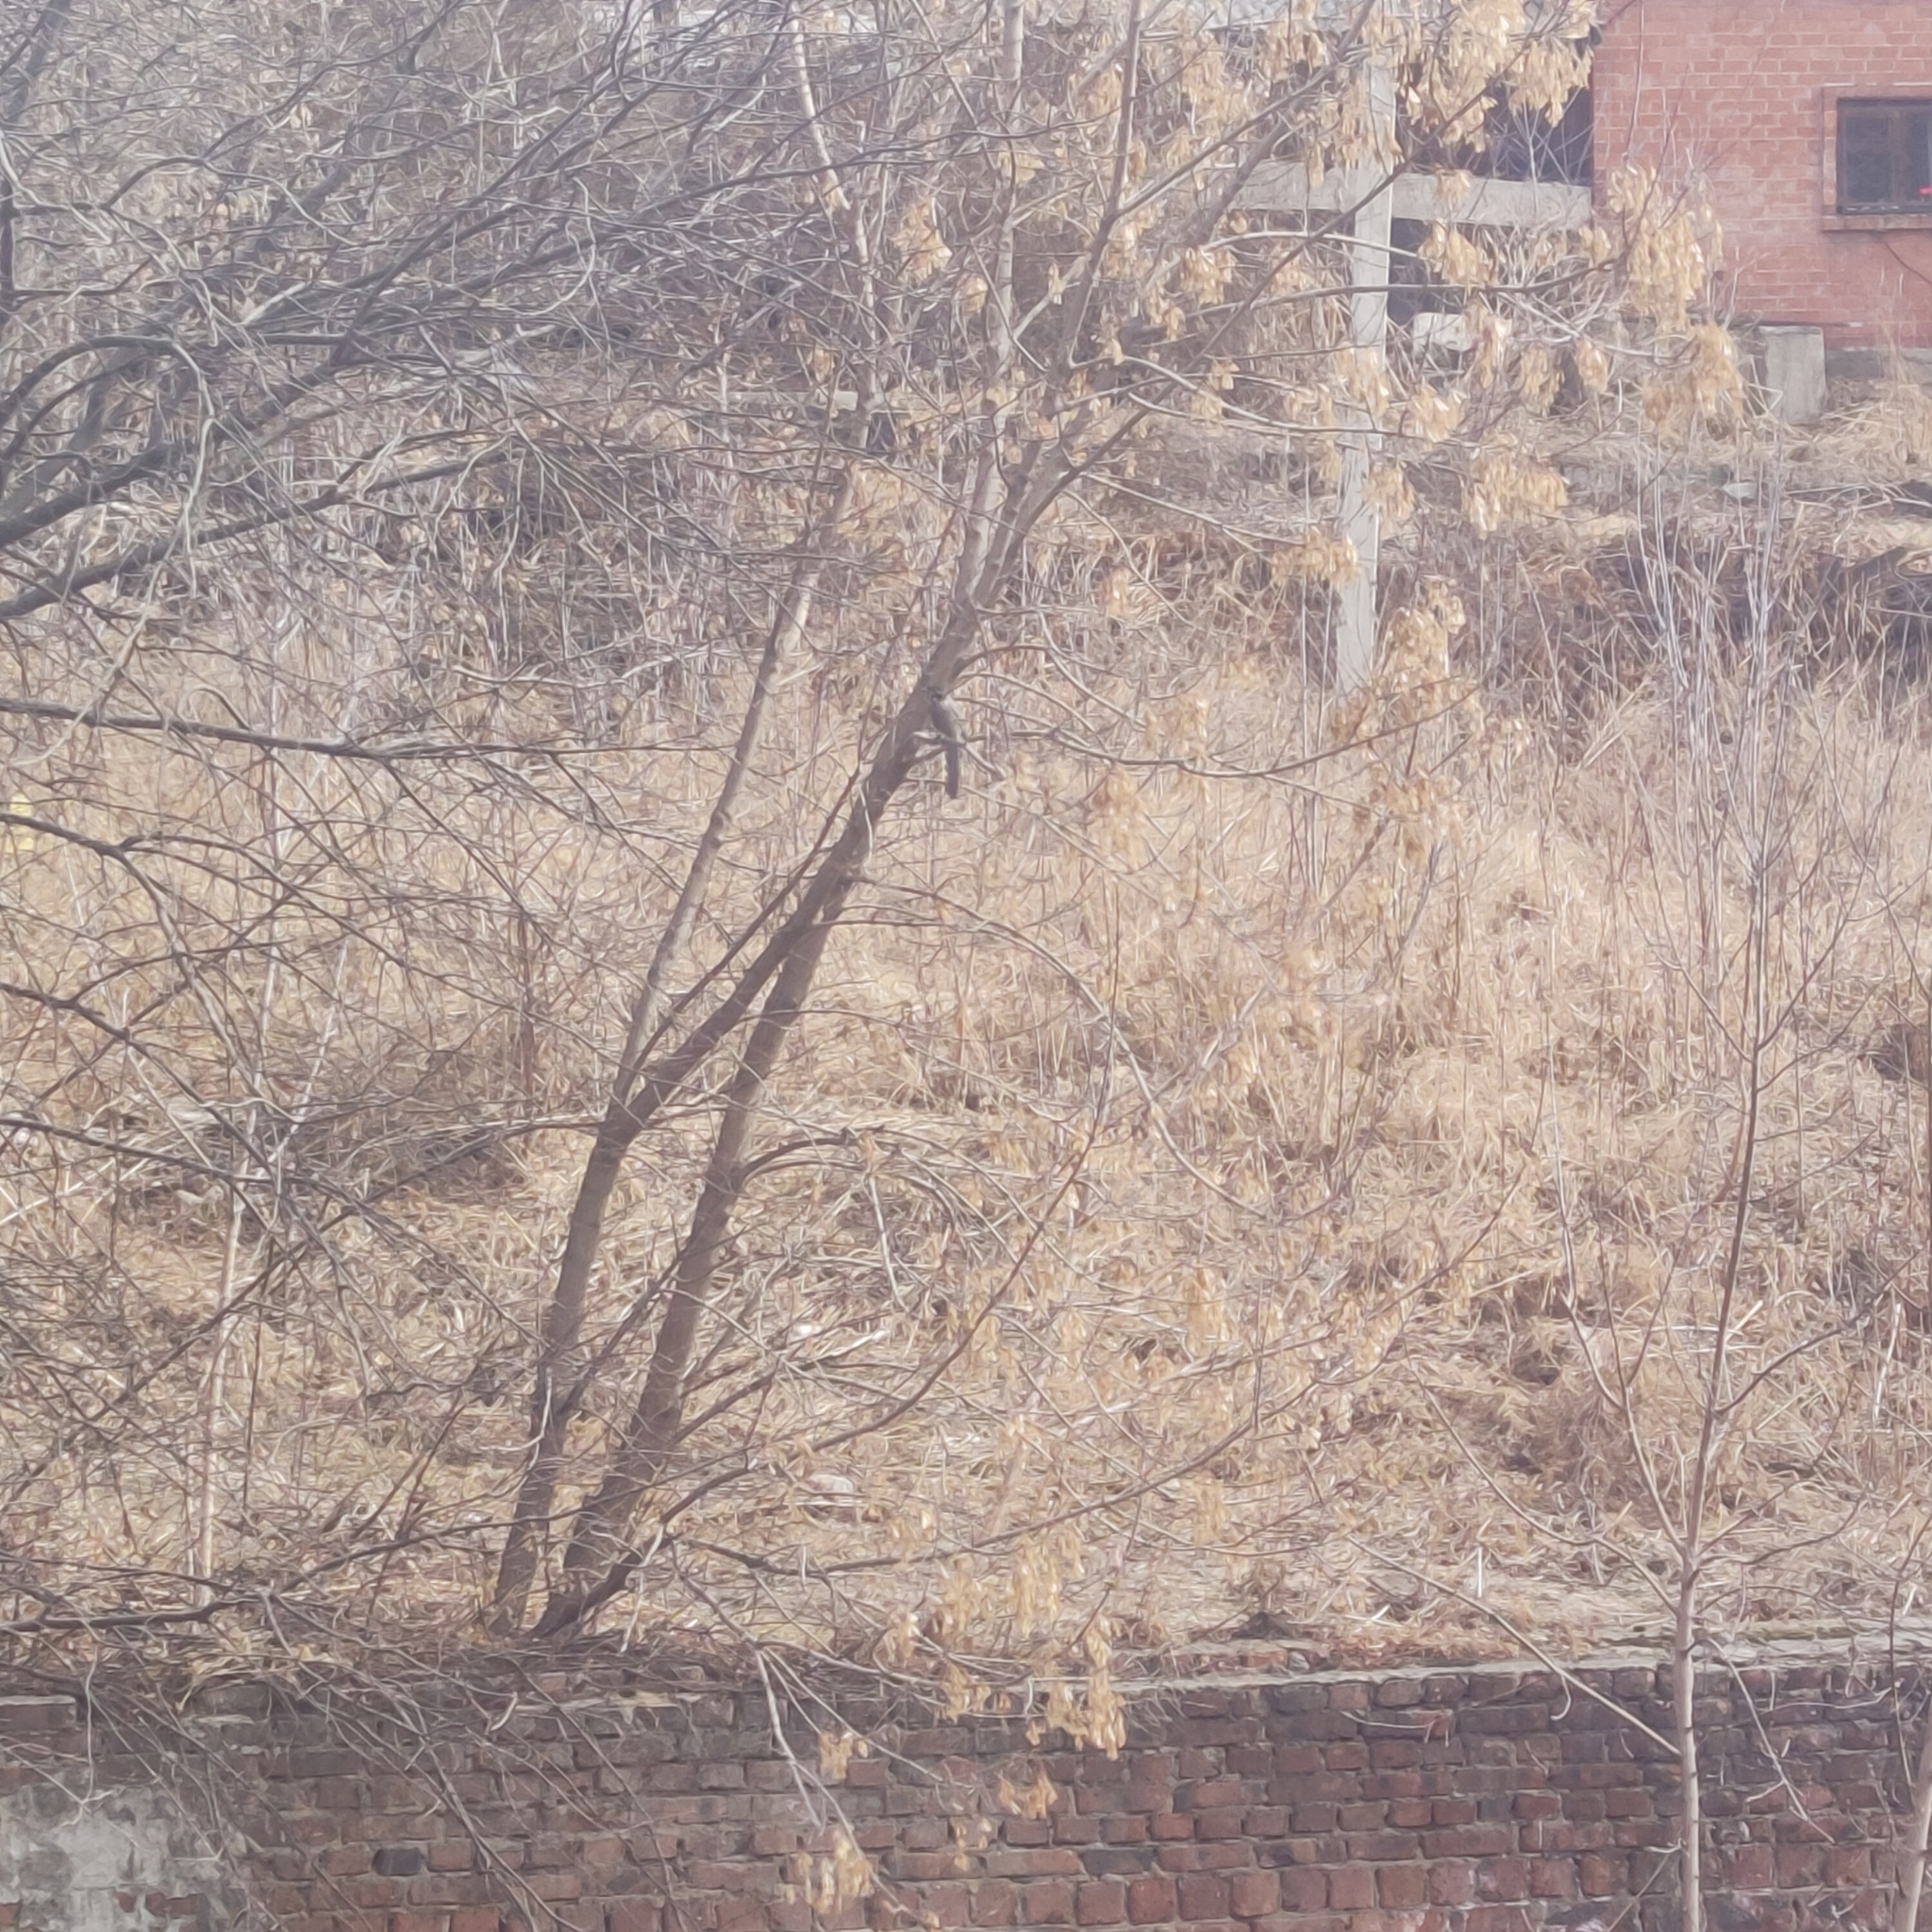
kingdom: Animalia
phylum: Chordata
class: Aves
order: Passeriformes
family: Corvidae
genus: Cyanopica
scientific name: Cyanopica cyanus
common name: Azure-winged magpie
